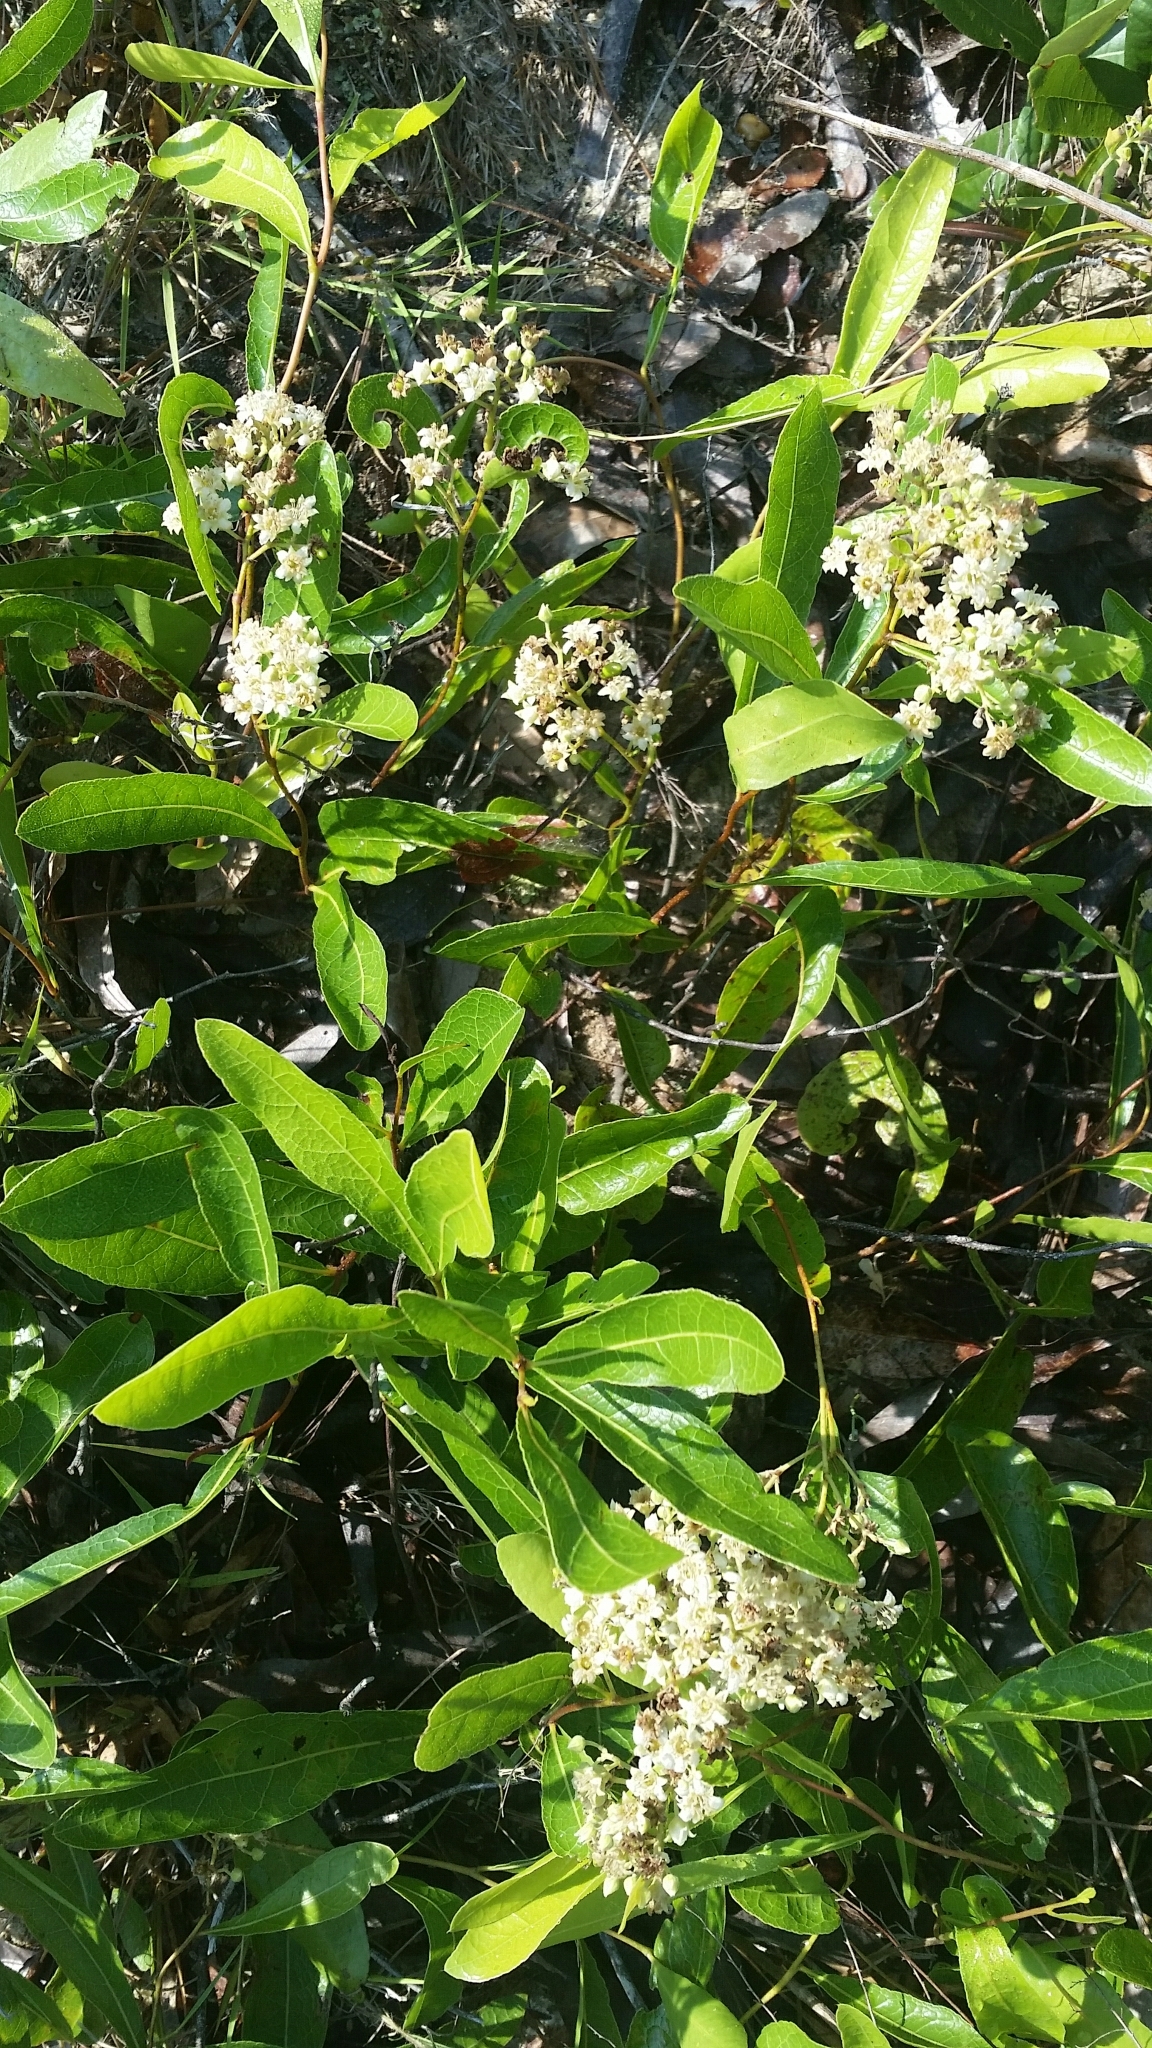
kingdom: Plantae
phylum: Tracheophyta
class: Magnoliopsida
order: Malpighiales
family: Chrysobalanaceae
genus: Geobalanus
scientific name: Geobalanus oblongifolius
